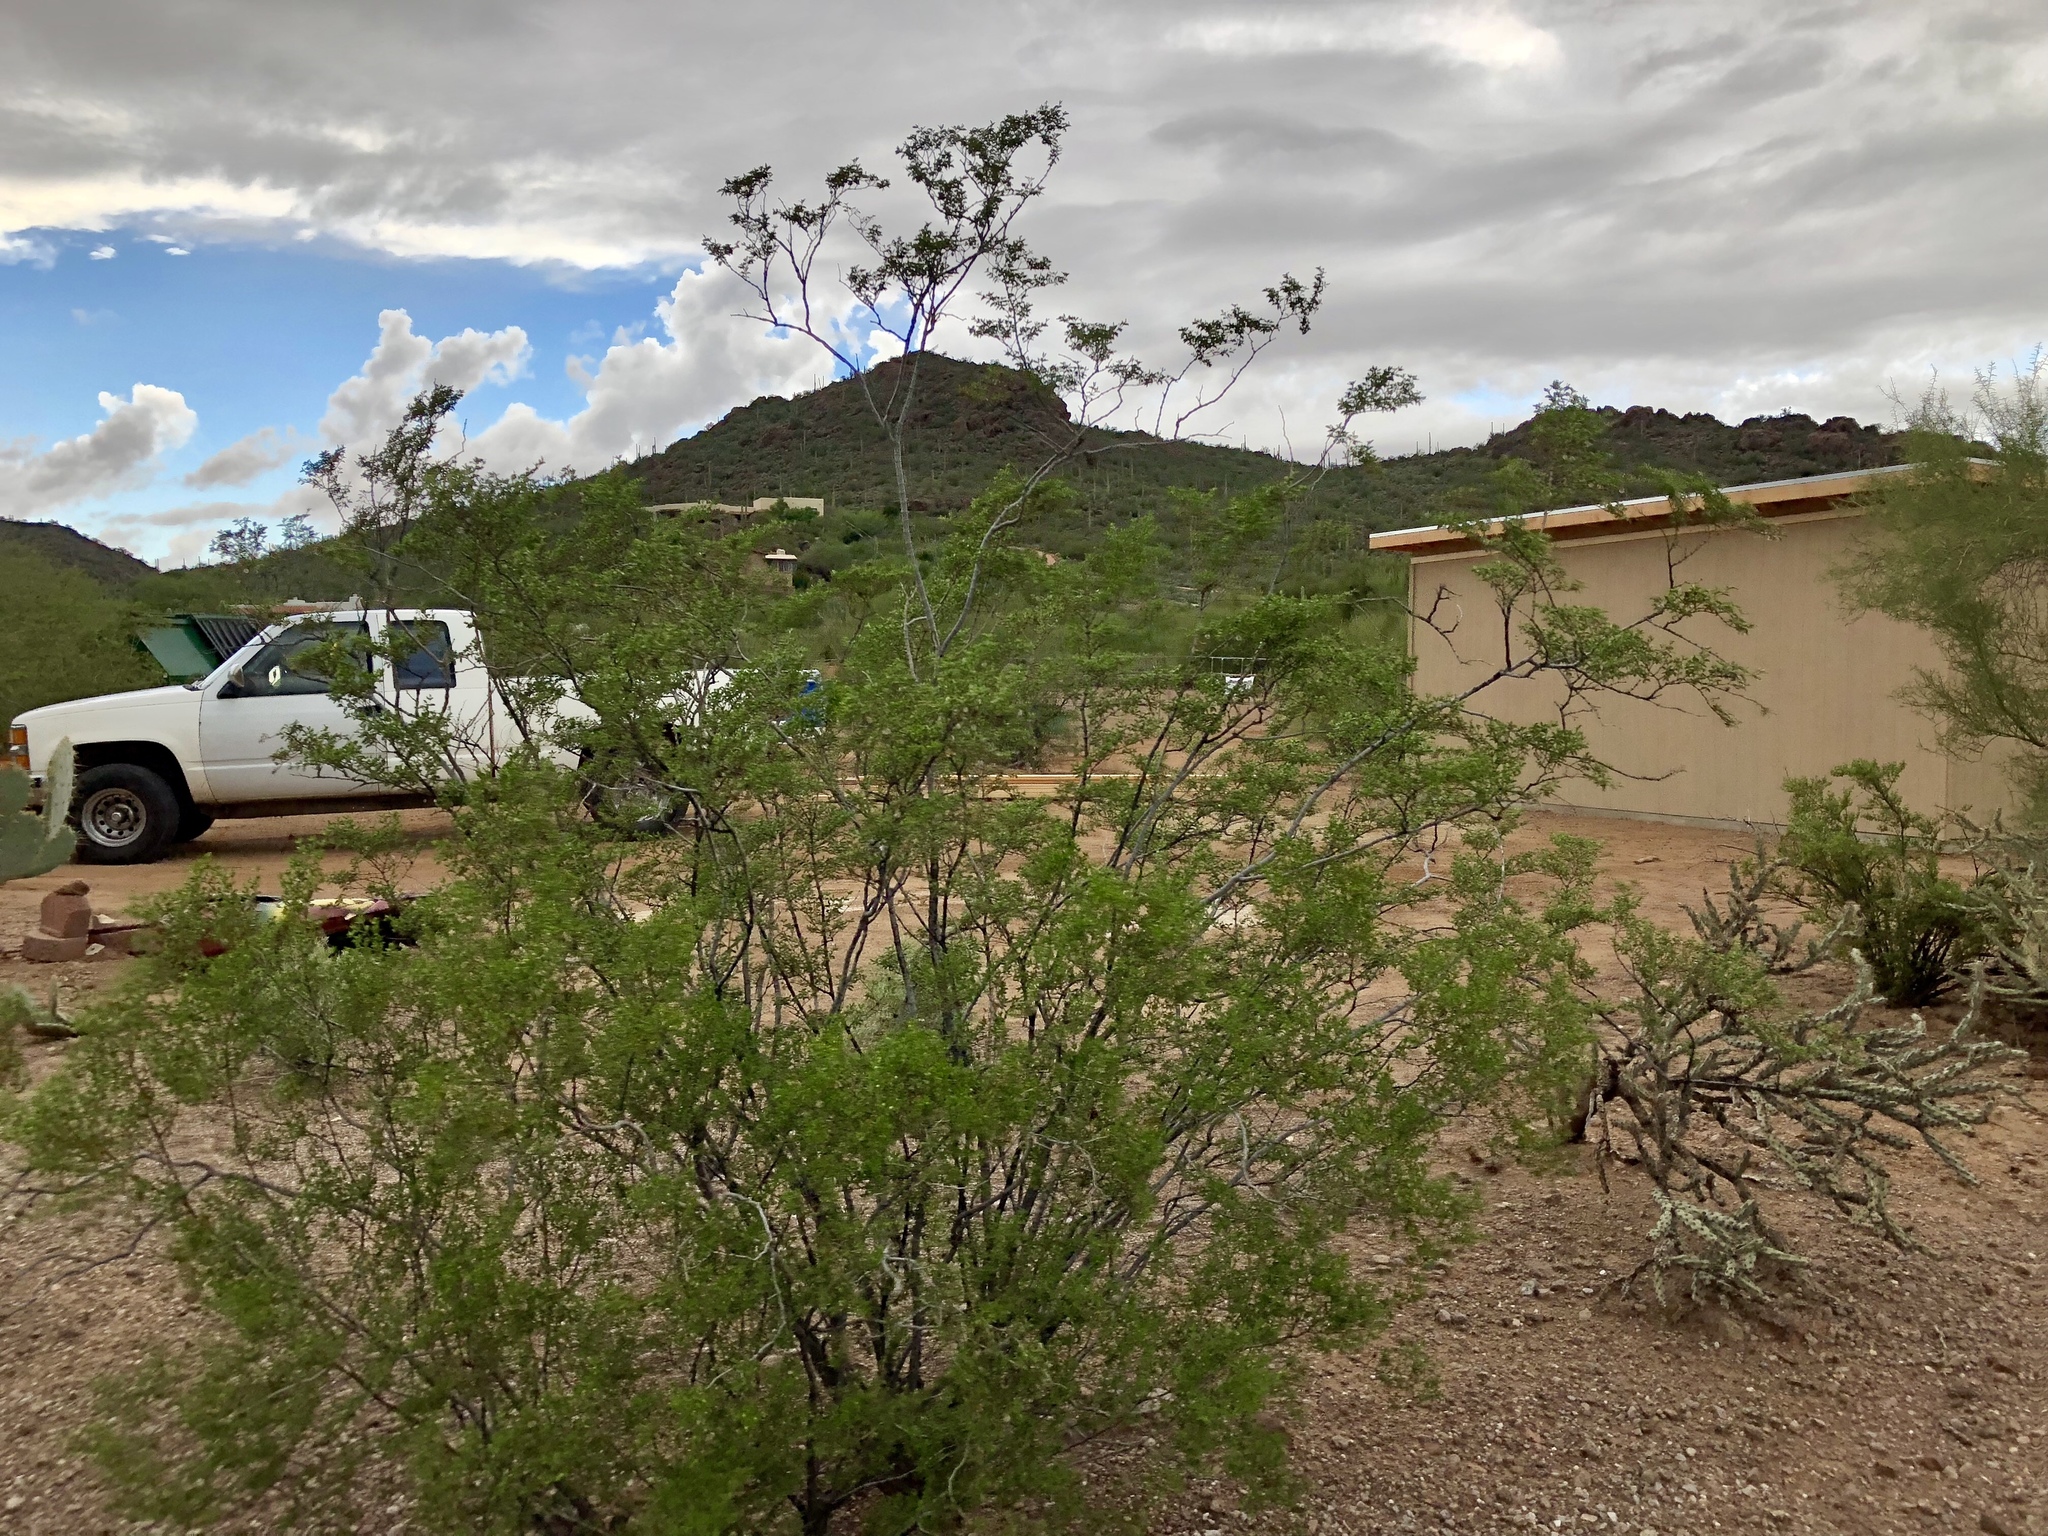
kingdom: Plantae
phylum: Tracheophyta
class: Magnoliopsida
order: Zygophyllales
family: Zygophyllaceae
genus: Larrea
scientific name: Larrea tridentata
